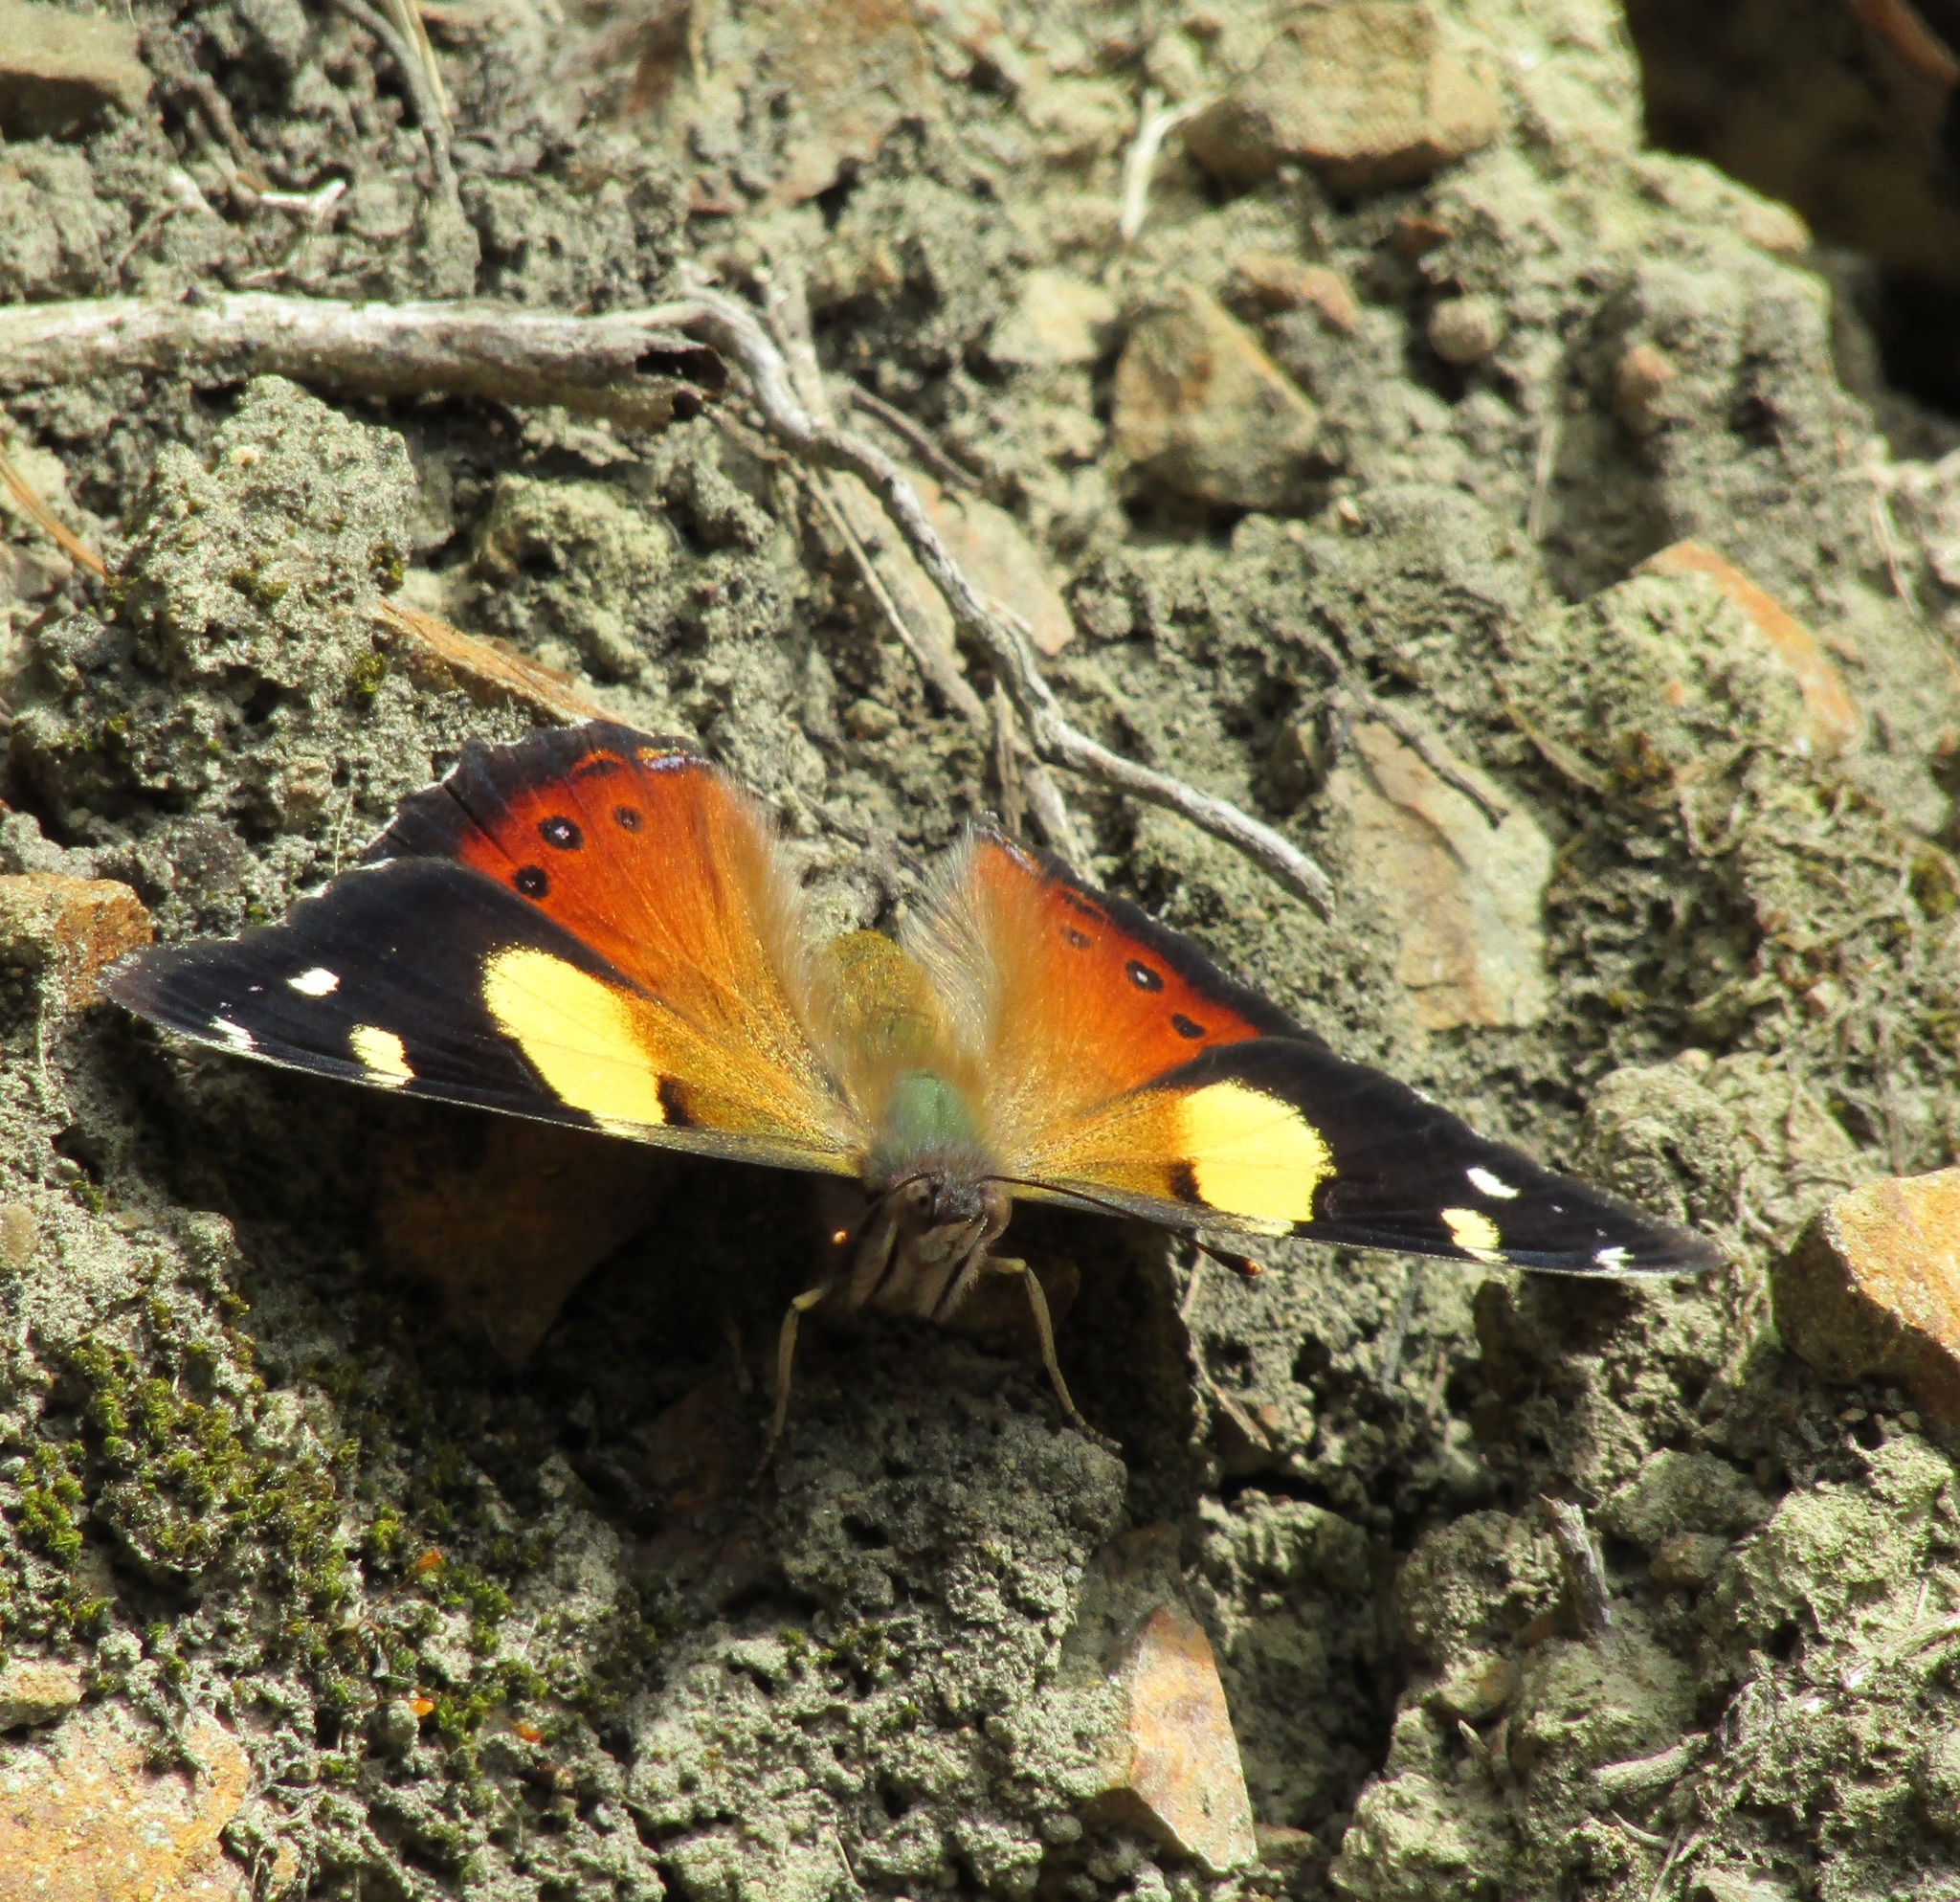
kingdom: Animalia
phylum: Arthropoda
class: Insecta
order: Lepidoptera
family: Nymphalidae
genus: Vanessa
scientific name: Vanessa itea
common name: Yellow admiral
